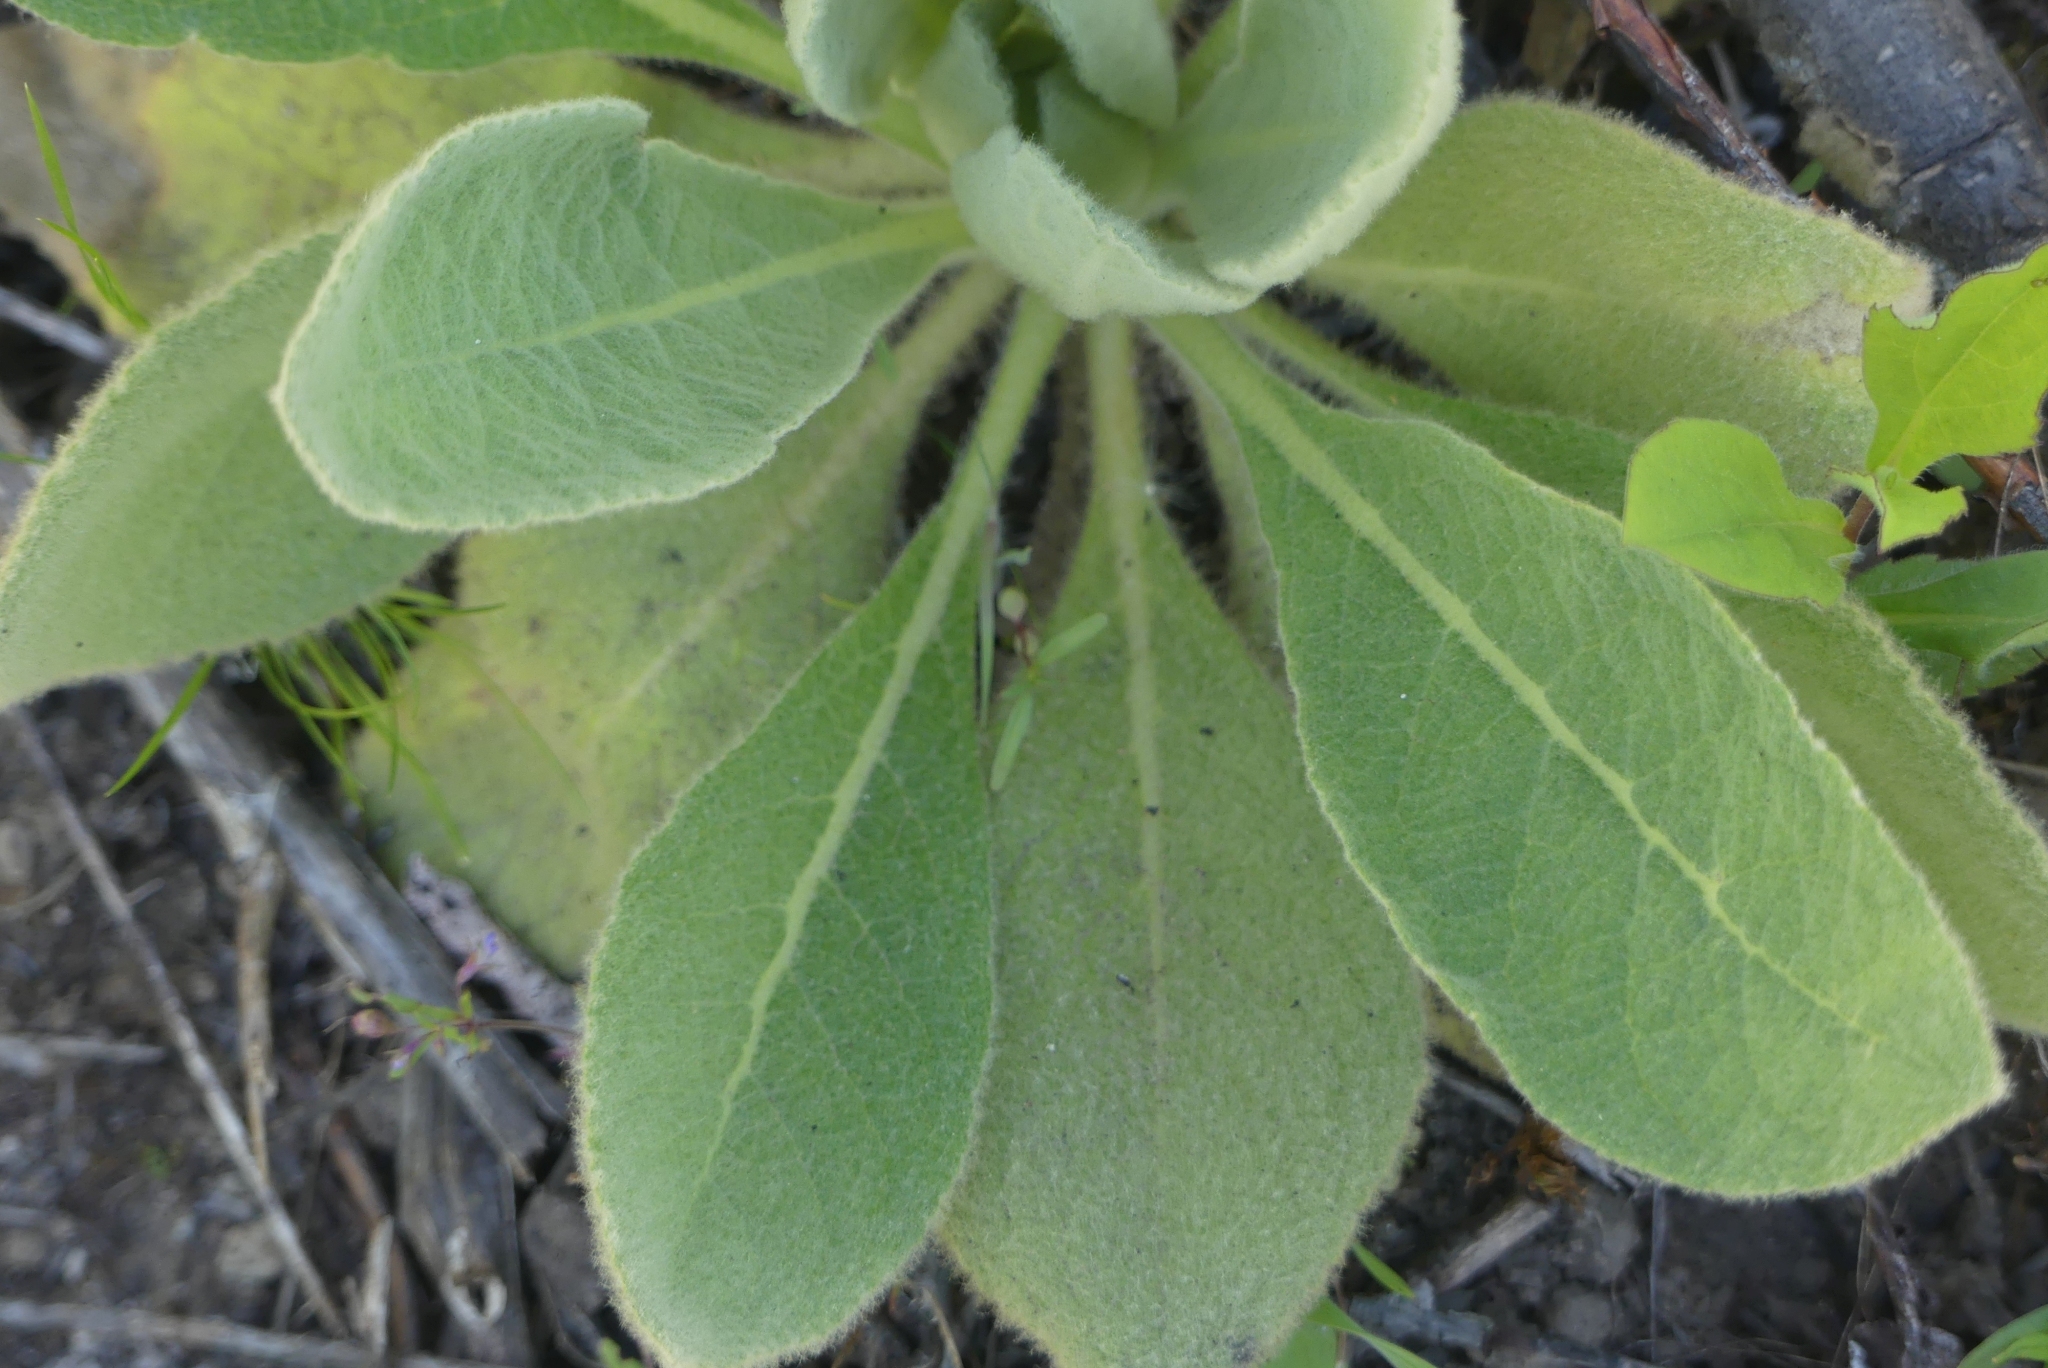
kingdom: Plantae
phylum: Tracheophyta
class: Magnoliopsida
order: Lamiales
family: Scrophulariaceae
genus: Verbascum
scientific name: Verbascum thapsus
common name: Common mullein
